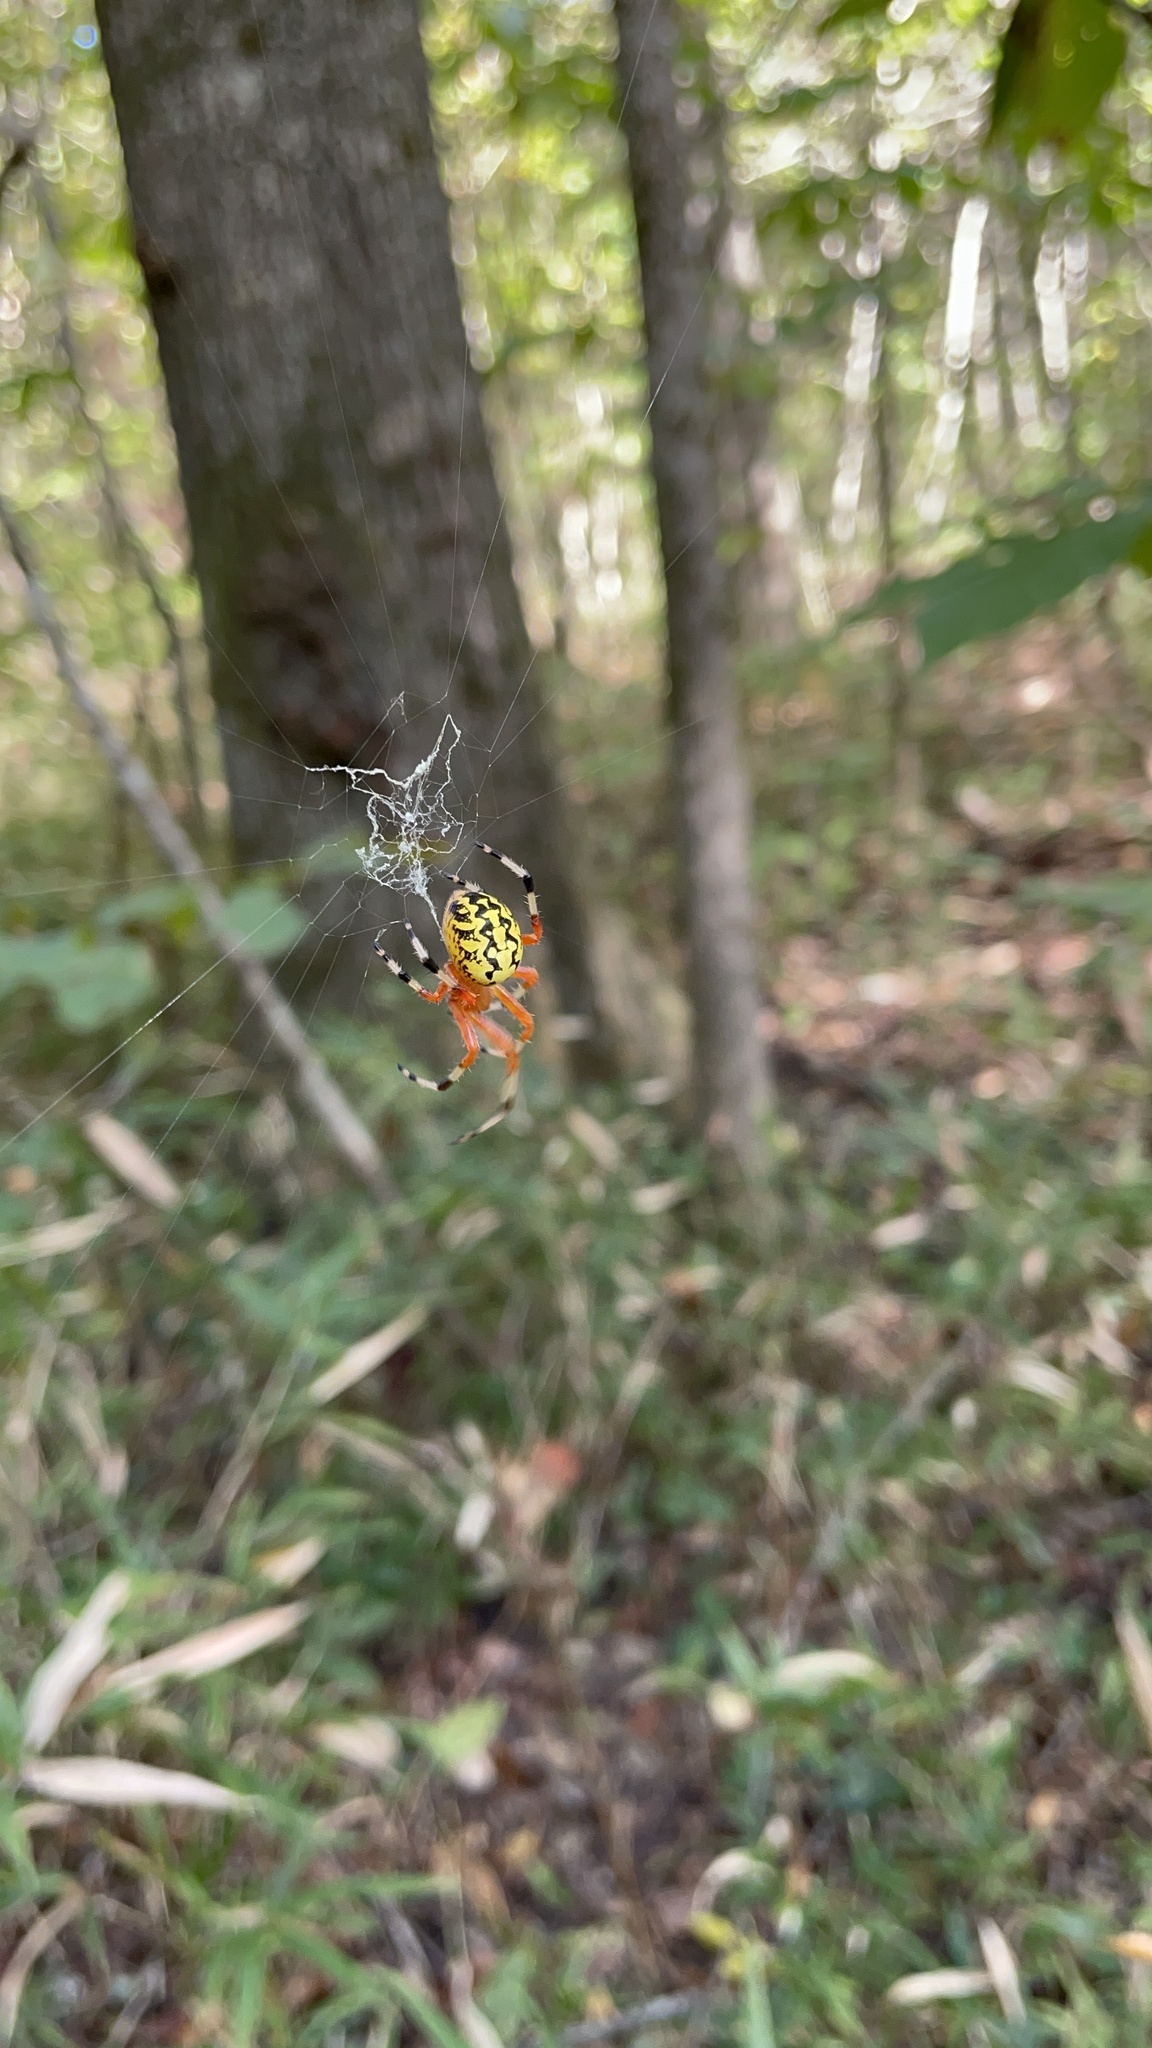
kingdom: Animalia
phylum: Arthropoda
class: Arachnida
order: Araneae
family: Araneidae
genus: Araneus
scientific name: Araneus marmoreus
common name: Marbled orbweaver
